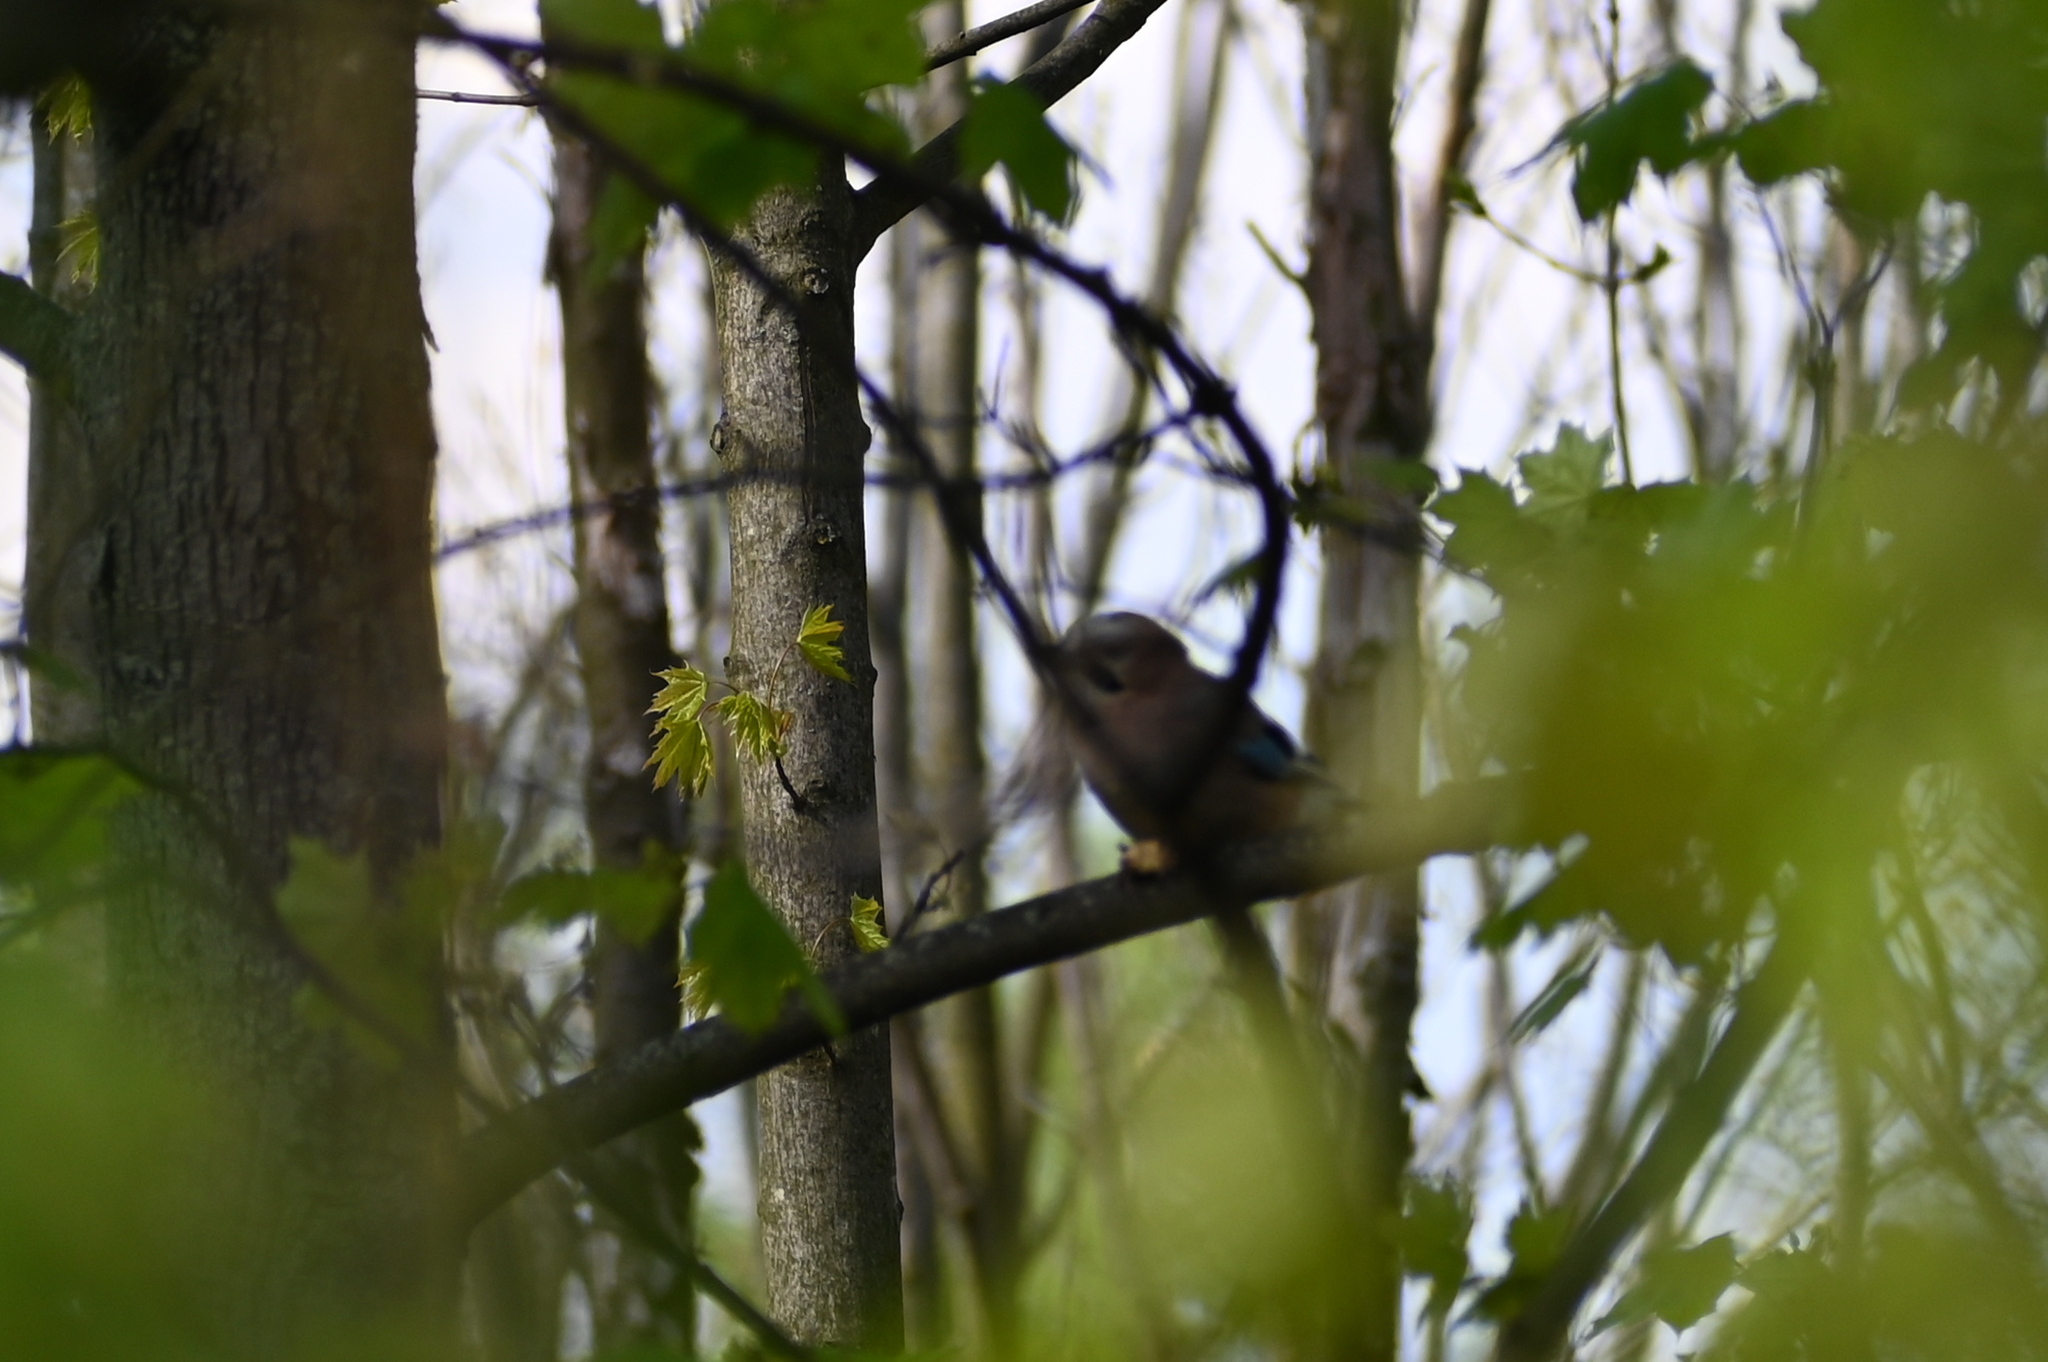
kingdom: Animalia
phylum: Chordata
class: Aves
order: Passeriformes
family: Corvidae
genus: Garrulus
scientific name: Garrulus glandarius
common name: Eurasian jay
